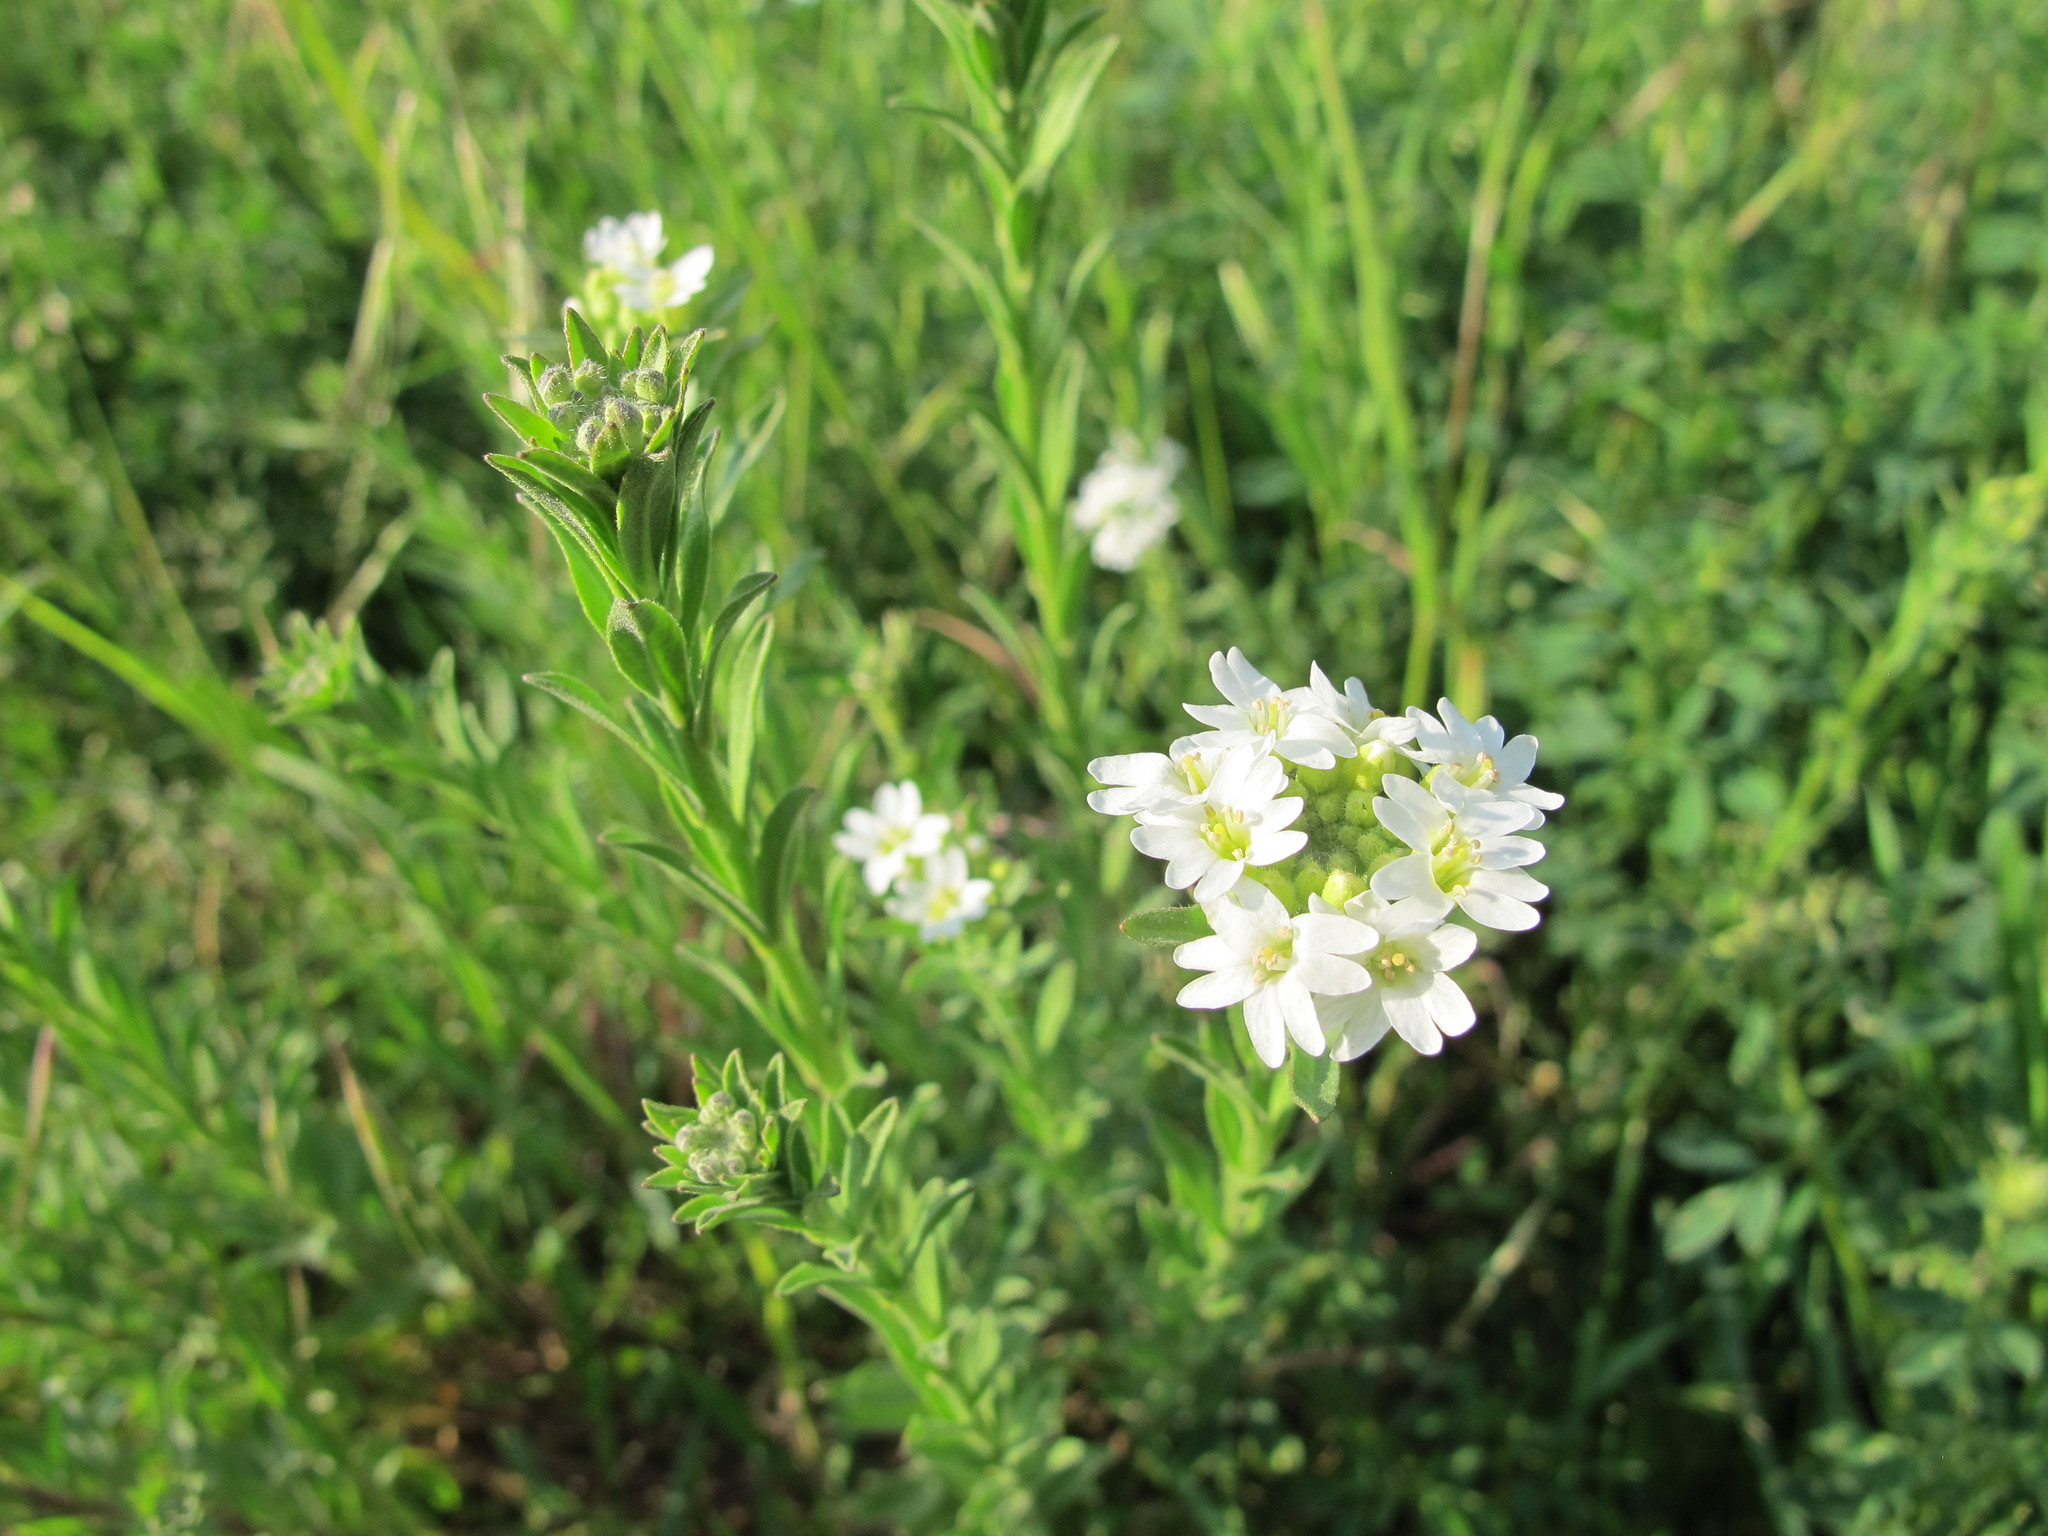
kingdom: Plantae
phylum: Tracheophyta
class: Magnoliopsida
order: Brassicales
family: Brassicaceae
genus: Berteroa
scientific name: Berteroa incana
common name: Hoary alison
